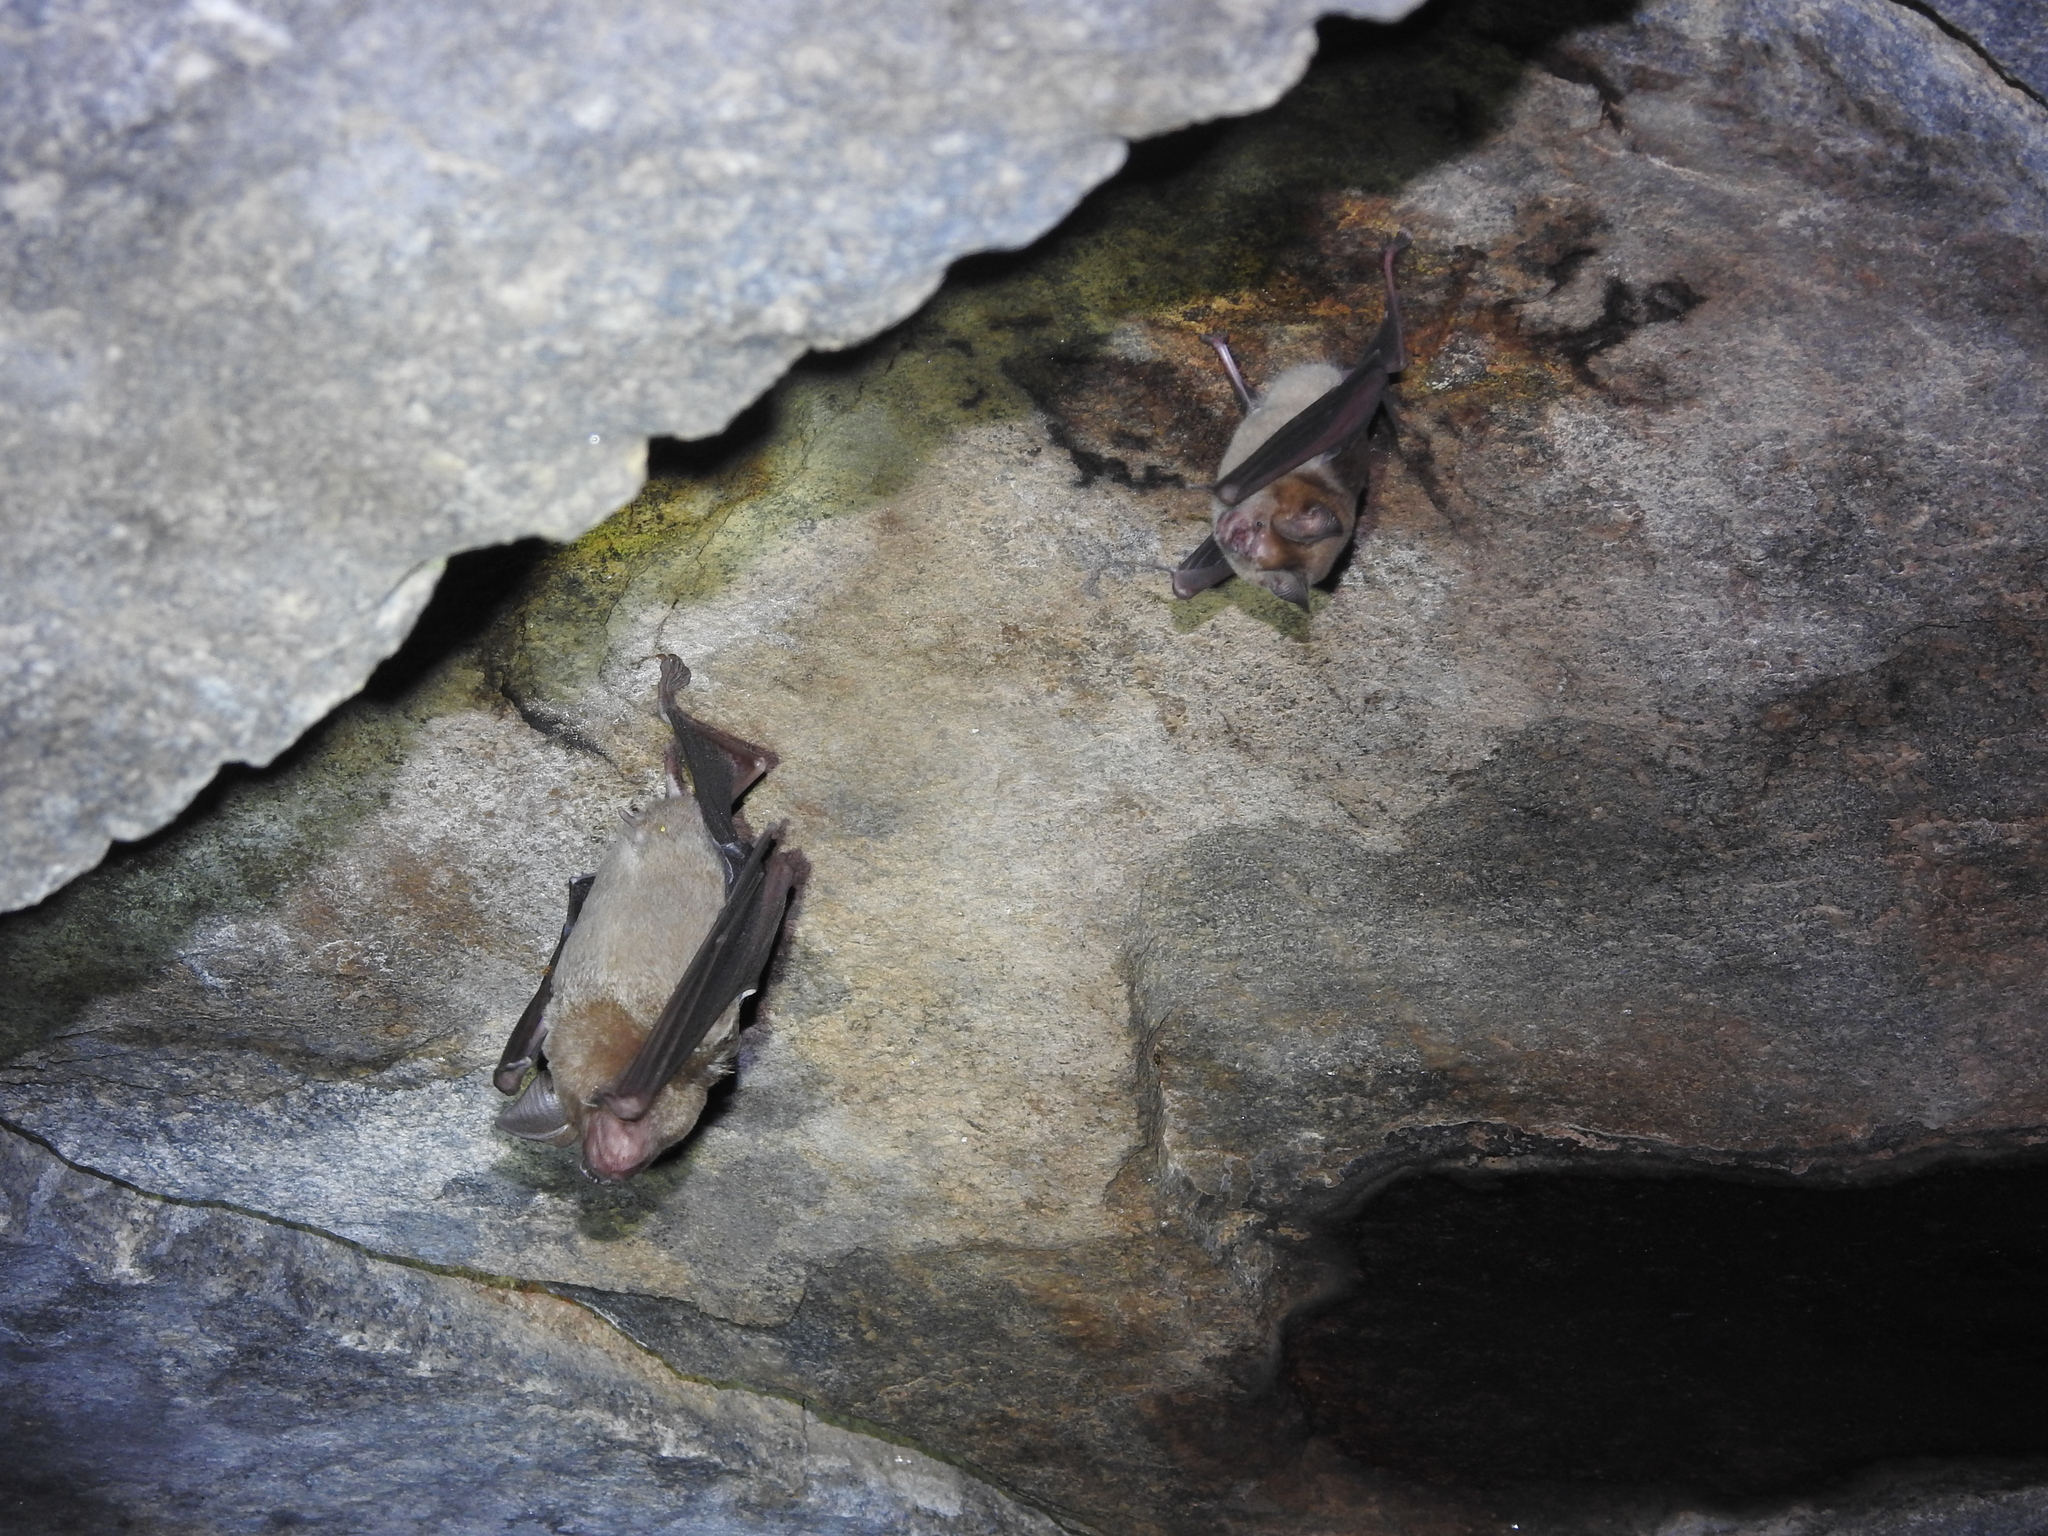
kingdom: Animalia
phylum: Chordata
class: Mammalia
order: Chiroptera
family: Hipposideridae
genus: Hipposideros
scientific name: Hipposideros speoris
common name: Schneider's roundleaf bat
